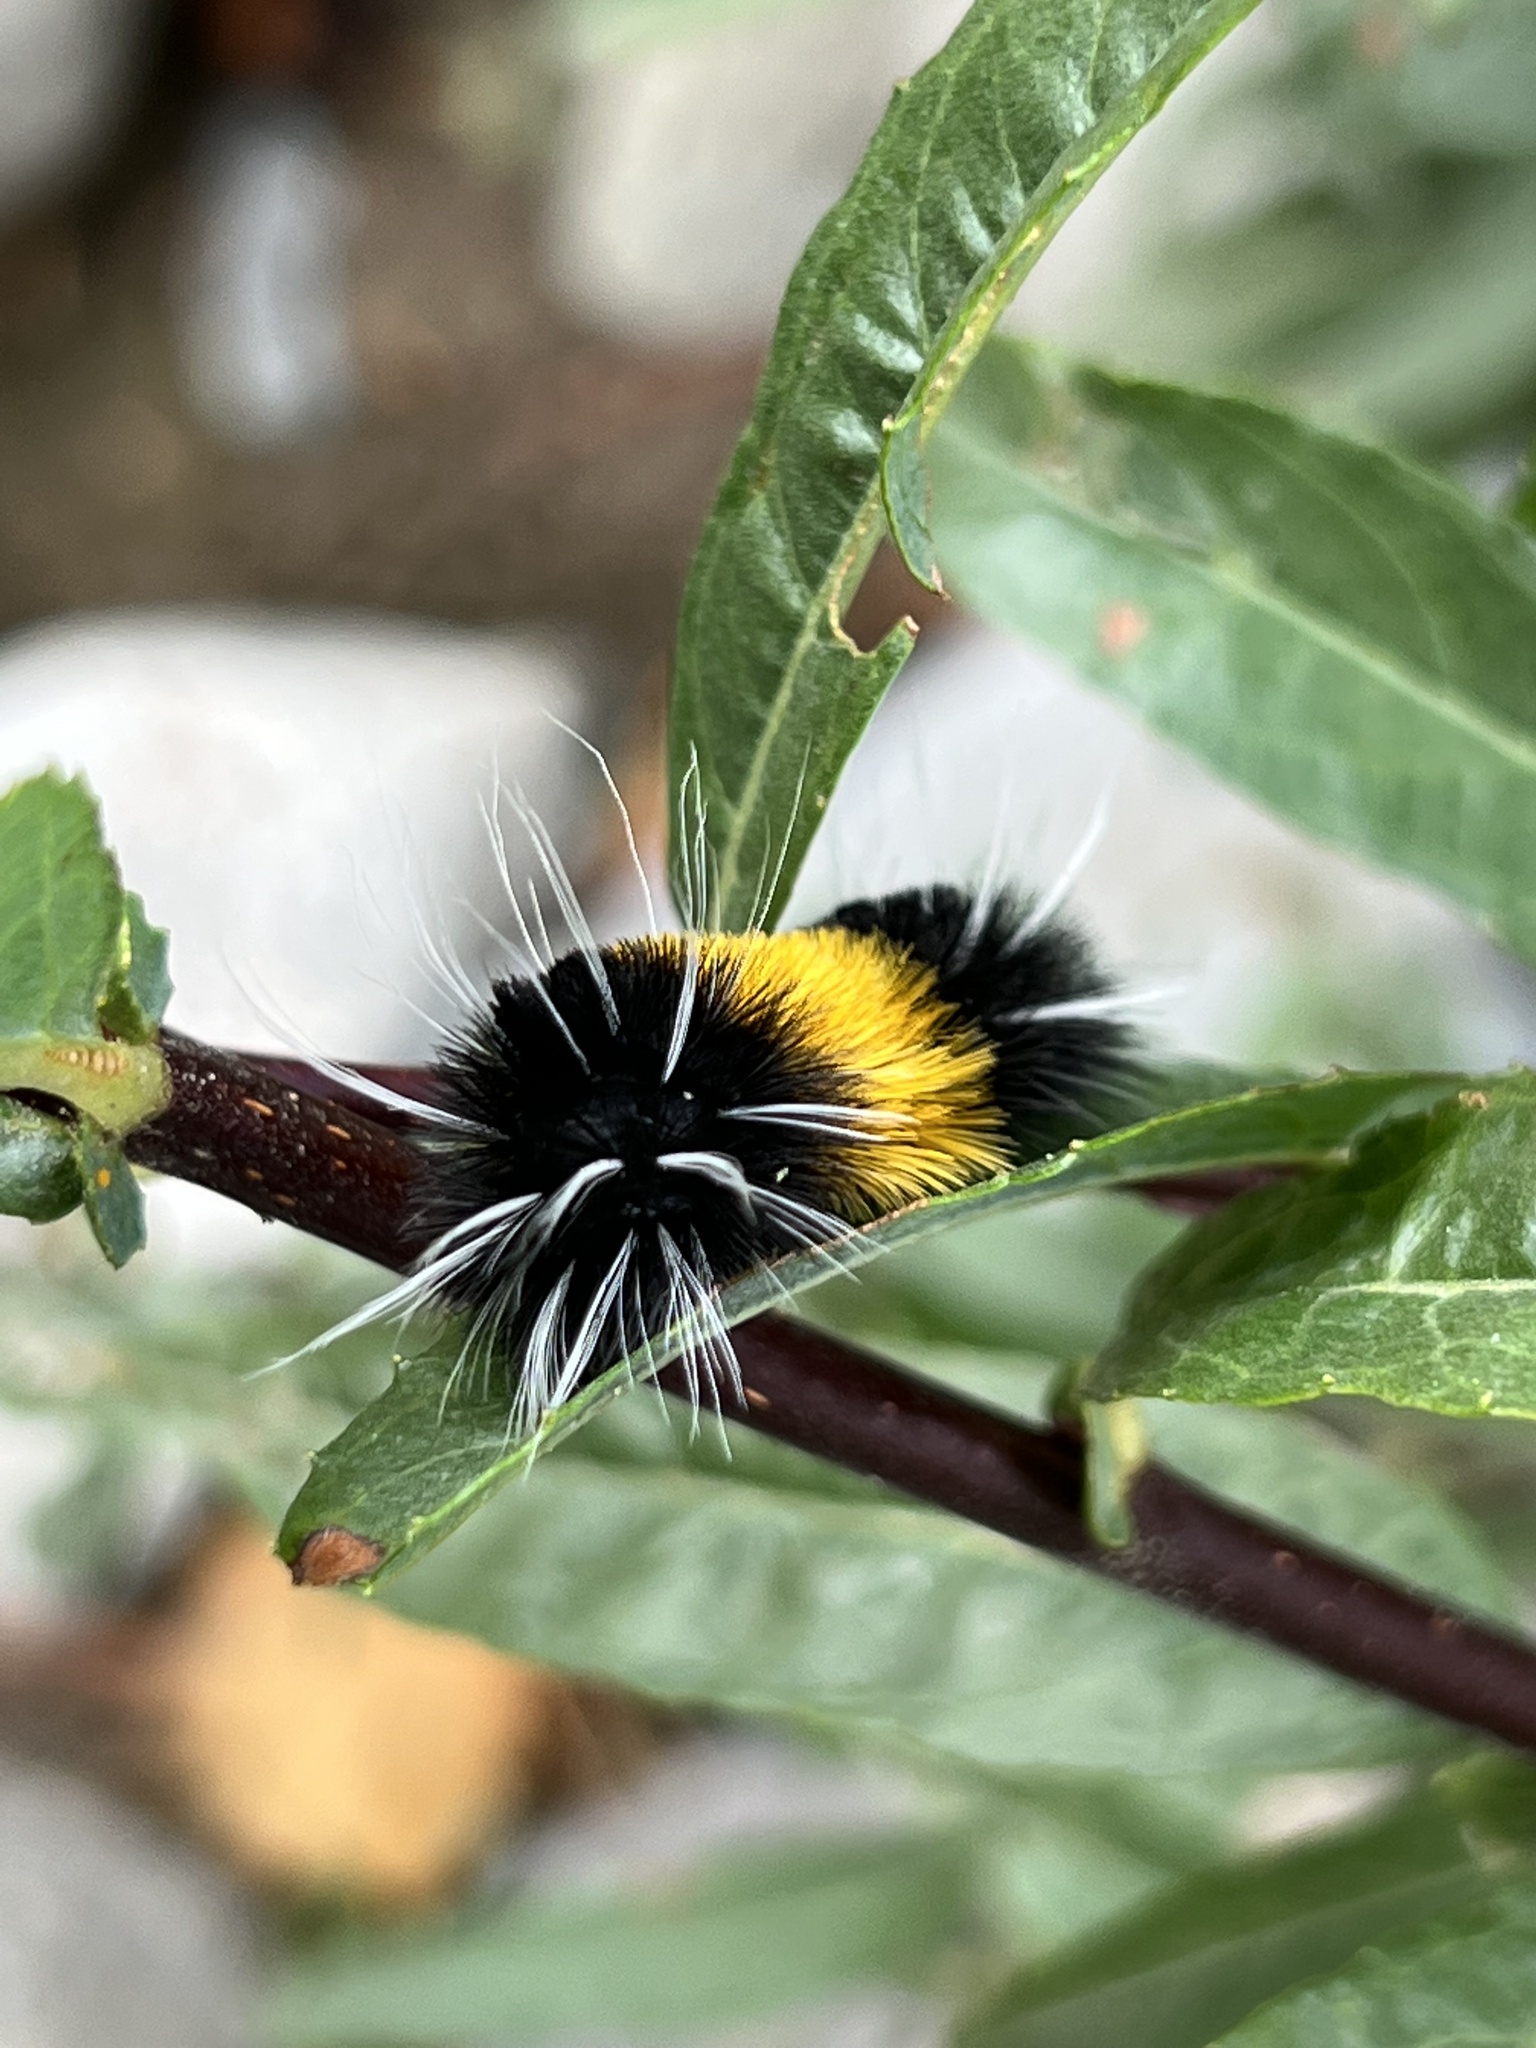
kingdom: Animalia
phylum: Arthropoda
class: Insecta
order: Lepidoptera
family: Erebidae
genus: Lophocampa
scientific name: Lophocampa maculata
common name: Spotted tussock moth
